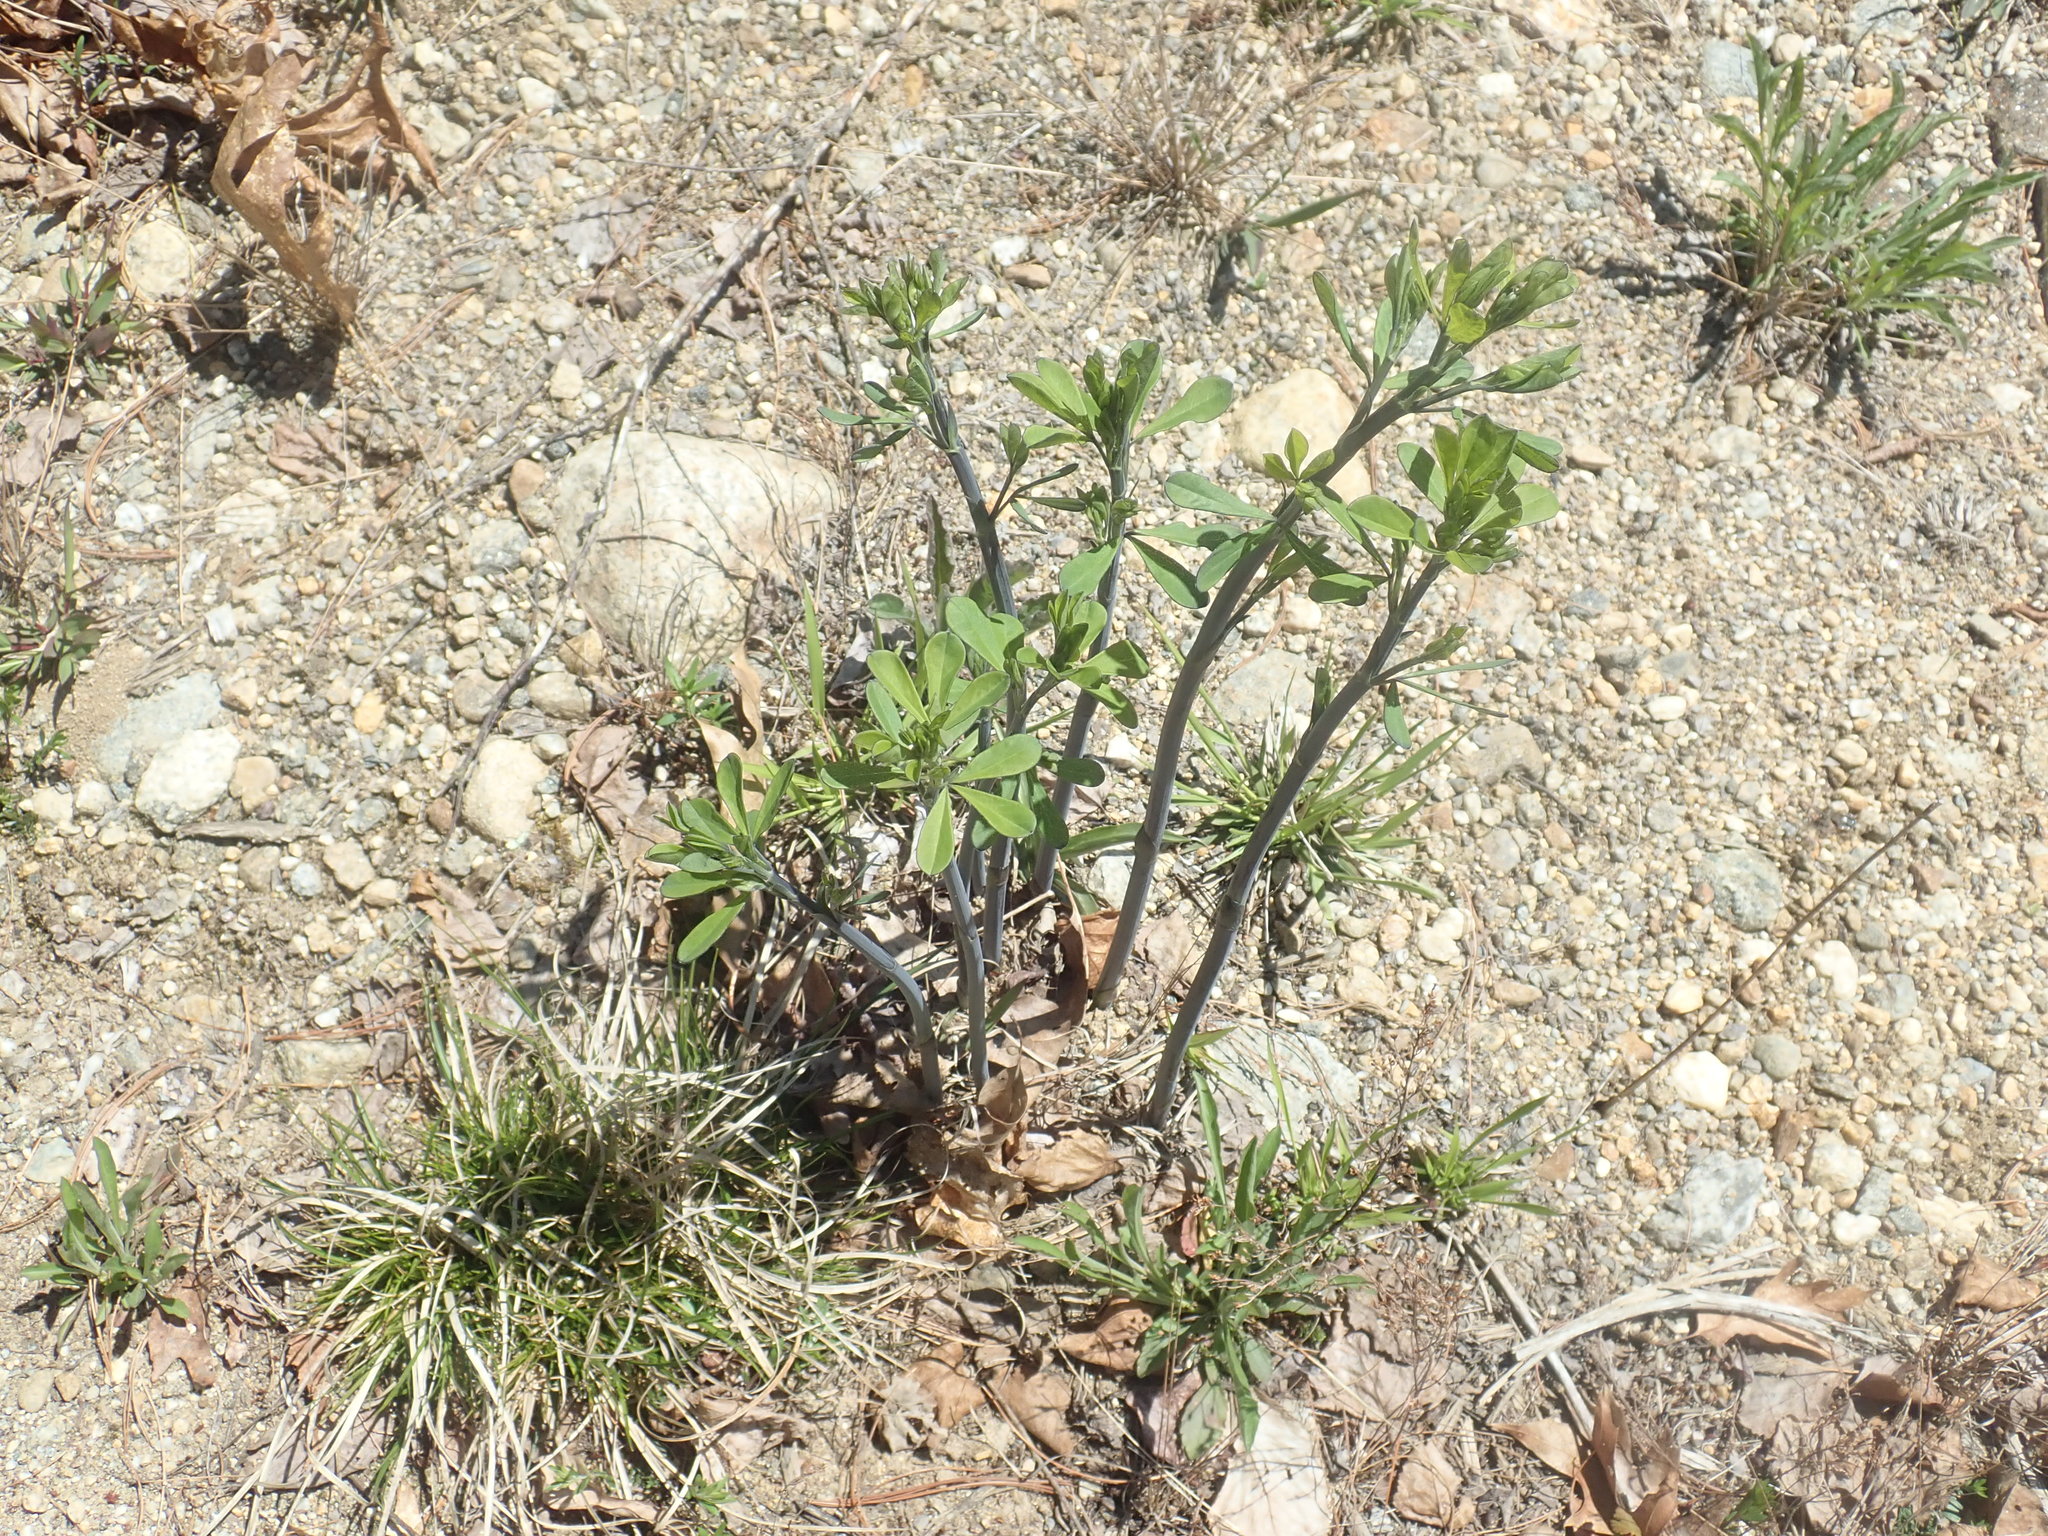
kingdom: Plantae
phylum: Tracheophyta
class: Magnoliopsida
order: Fabales
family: Fabaceae
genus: Baptisia
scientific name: Baptisia tinctoria
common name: Wild indigo
